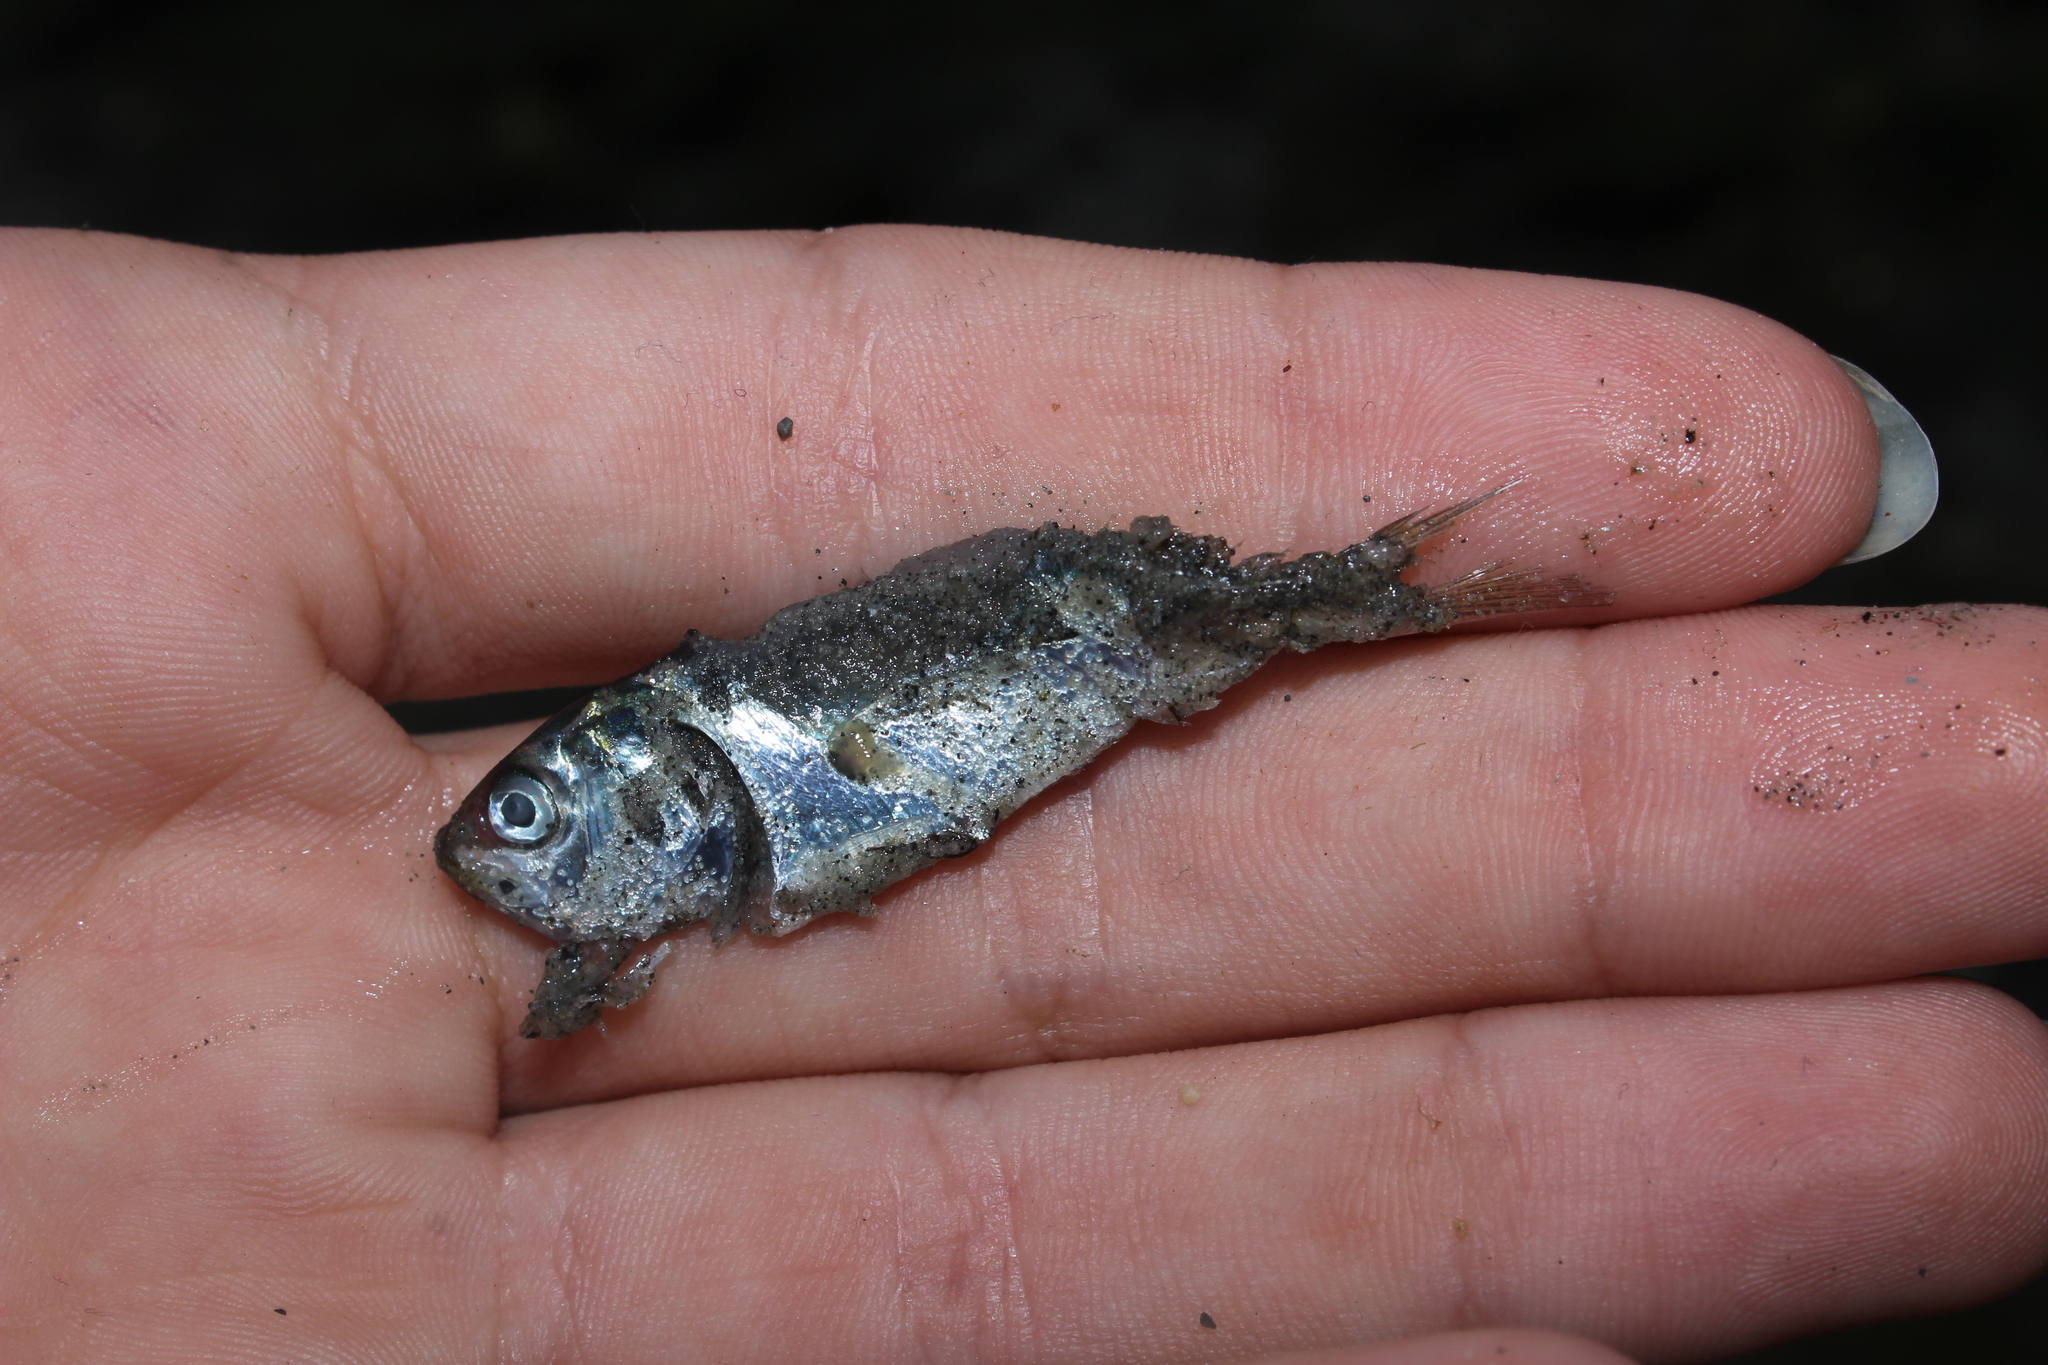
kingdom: Animalia
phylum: Chordata
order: Clupeiformes
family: Clupeidae
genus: Brevoortia
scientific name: Brevoortia tyrannus
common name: Atlantic menhaden
